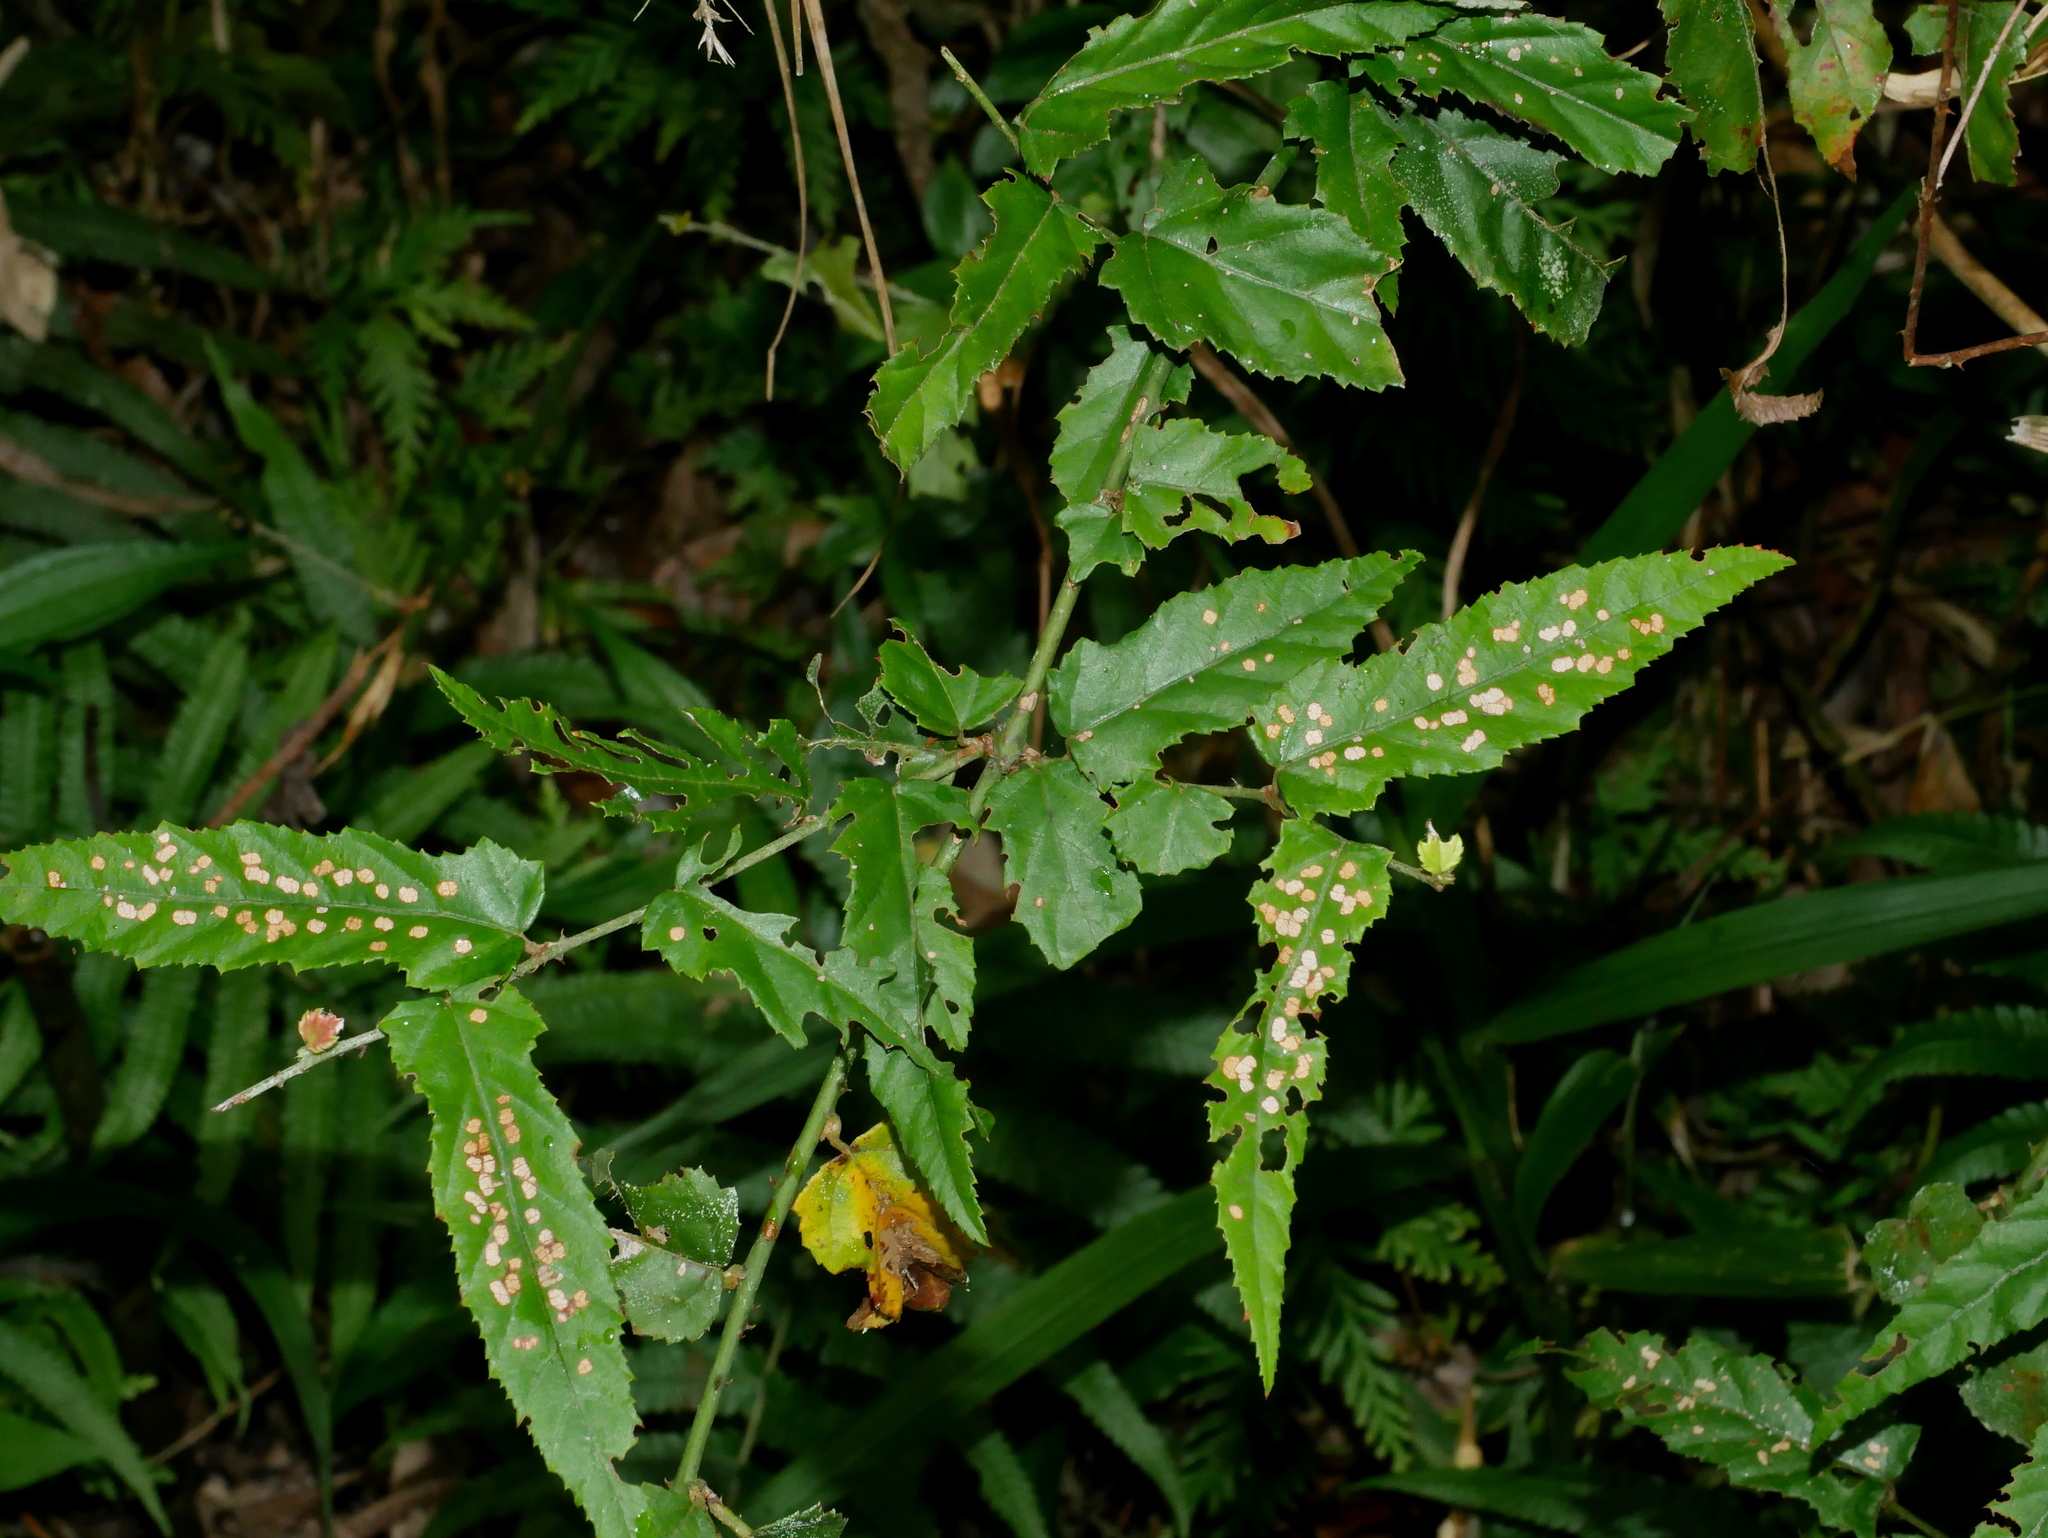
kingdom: Plantae
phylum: Tracheophyta
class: Magnoliopsida
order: Rosales
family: Rosaceae
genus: Rubus
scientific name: Rubus swinhoei
